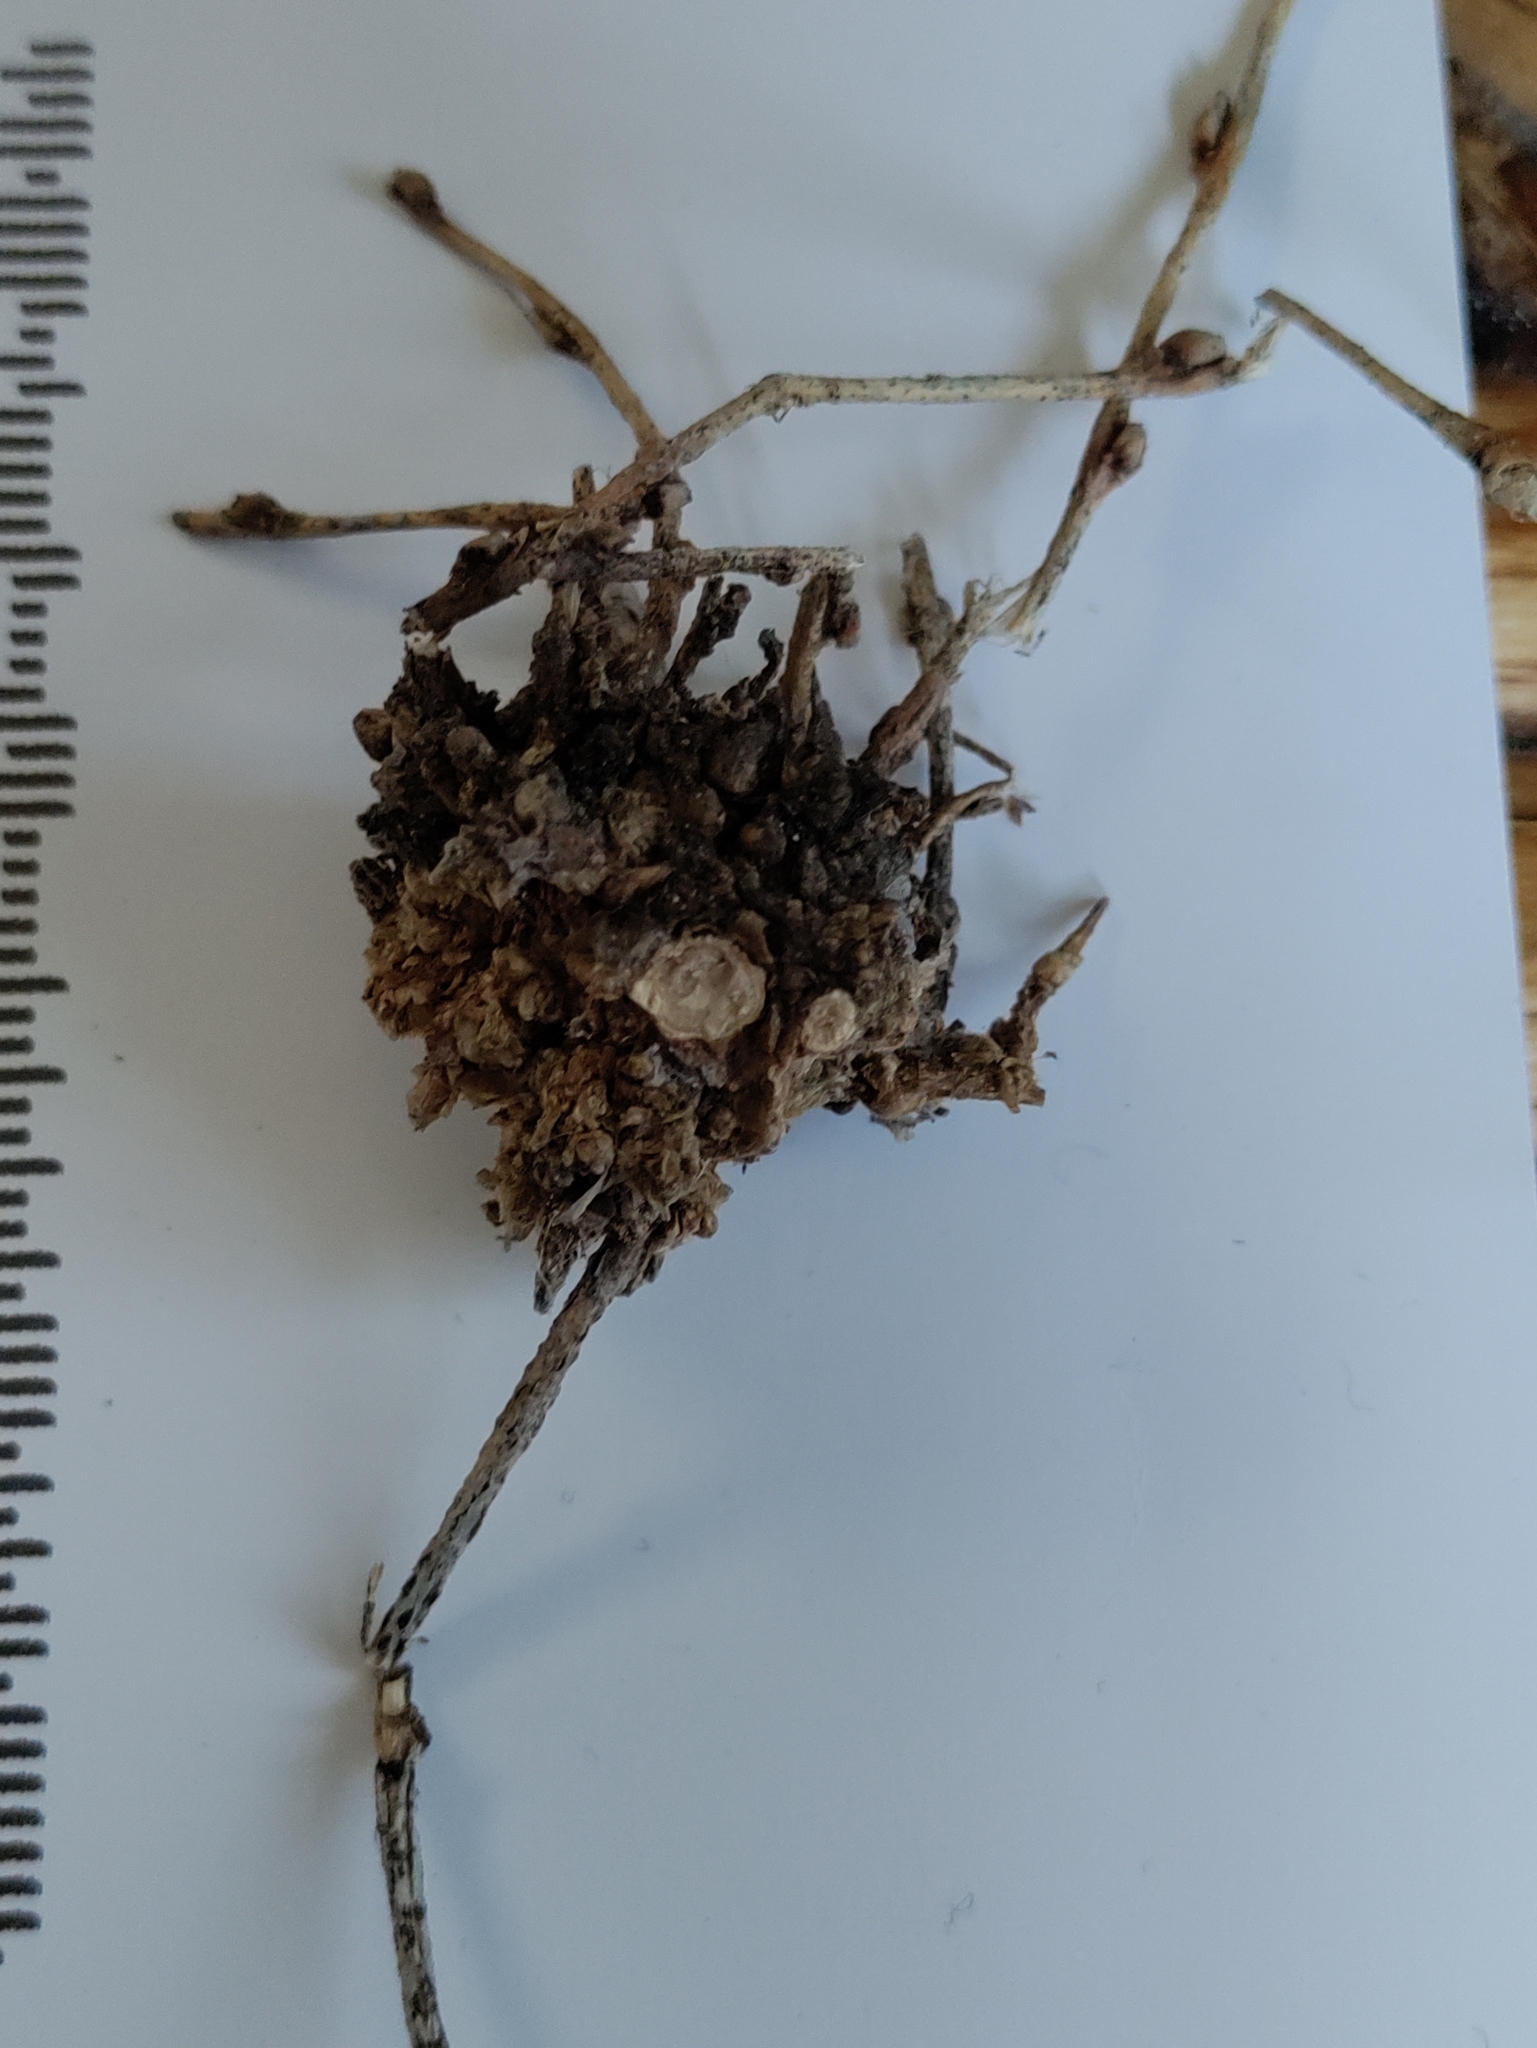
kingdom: Fungi
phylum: Ascomycota
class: Leotiomycetes
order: Helotiales
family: Erysiphaceae
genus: Podosphaera
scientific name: Podosphaera phytoptophila
